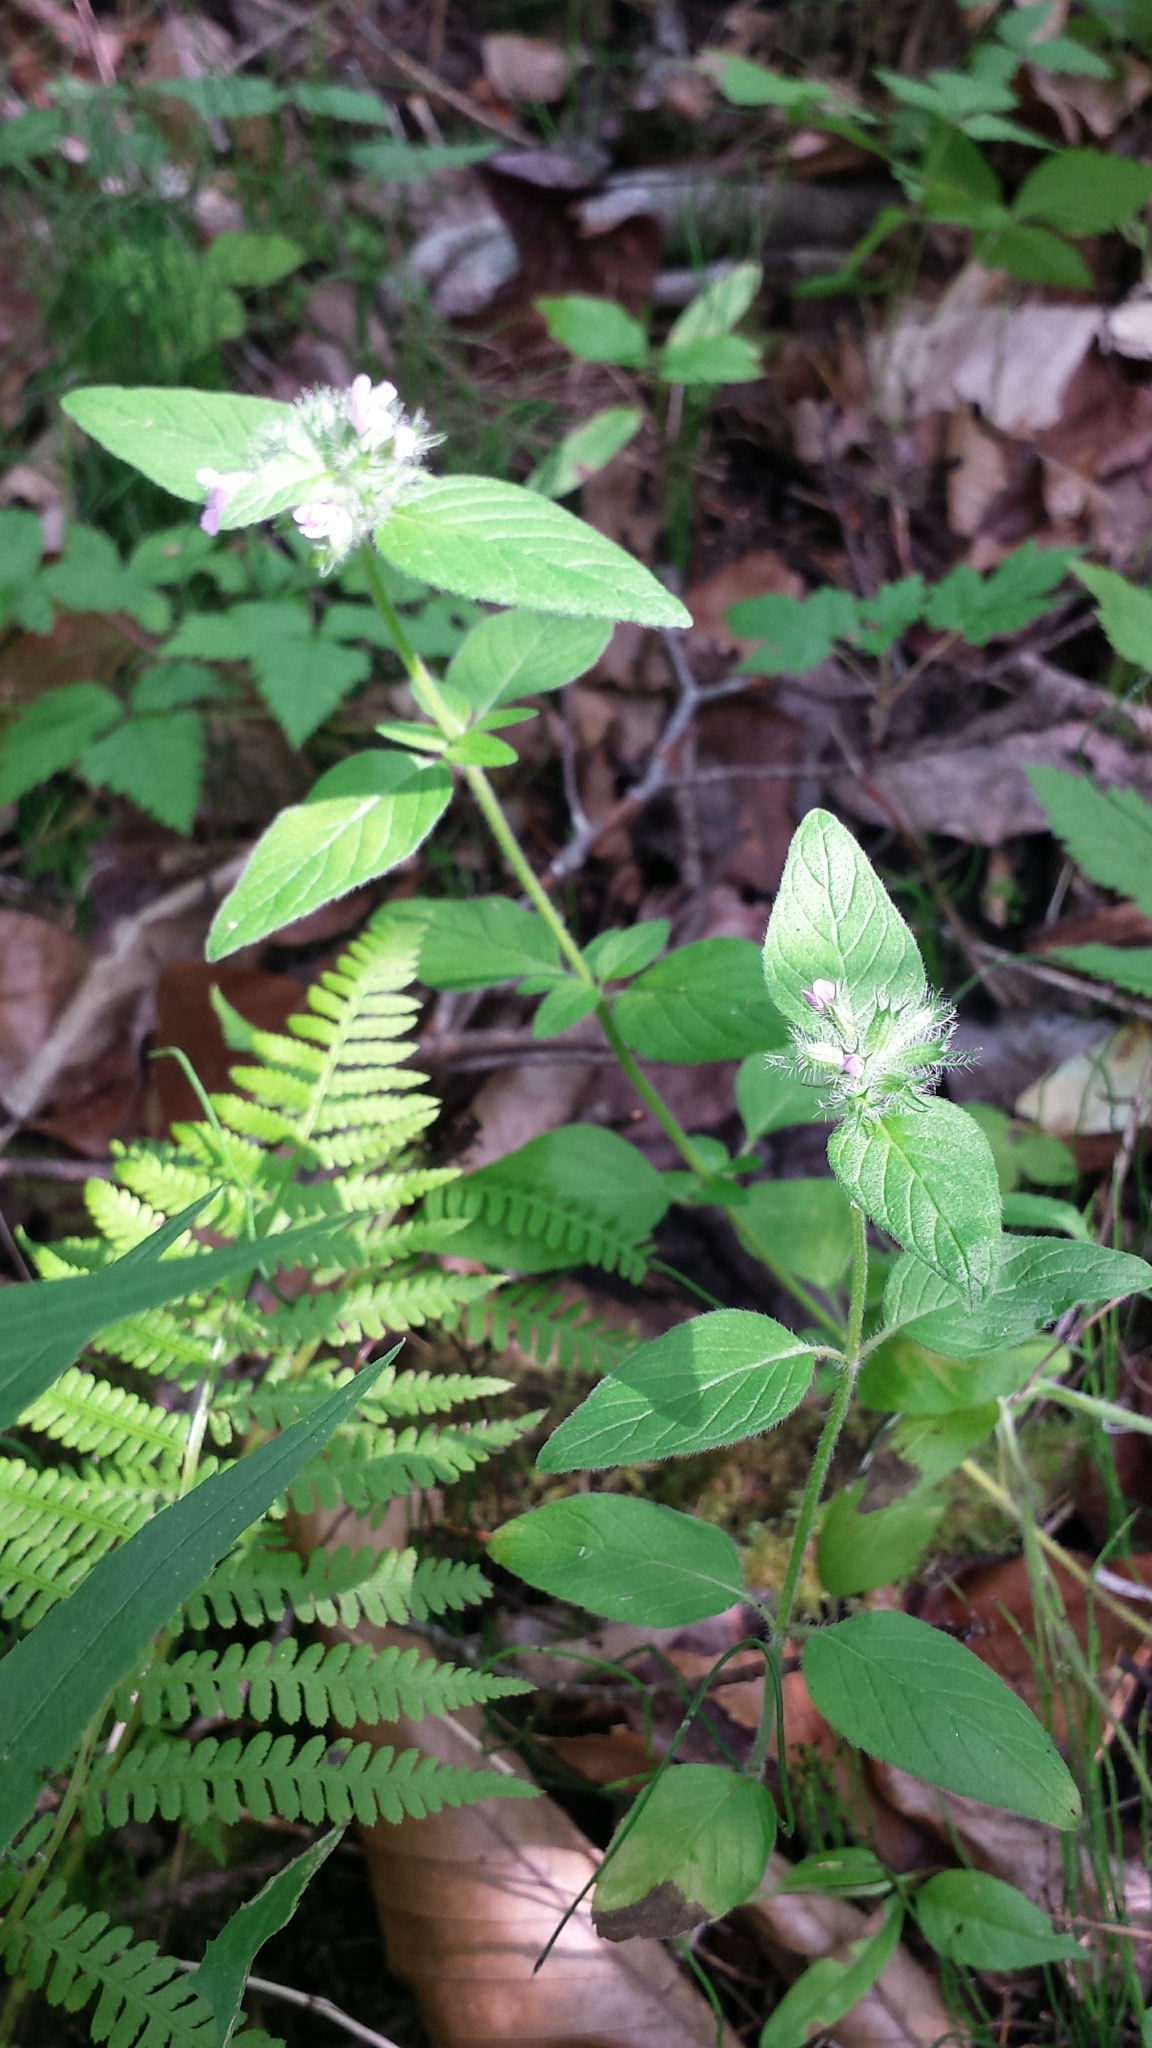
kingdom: Plantae
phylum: Tracheophyta
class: Magnoliopsida
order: Lamiales
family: Lamiaceae
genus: Clinopodium
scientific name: Clinopodium vulgare
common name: Wild basil
